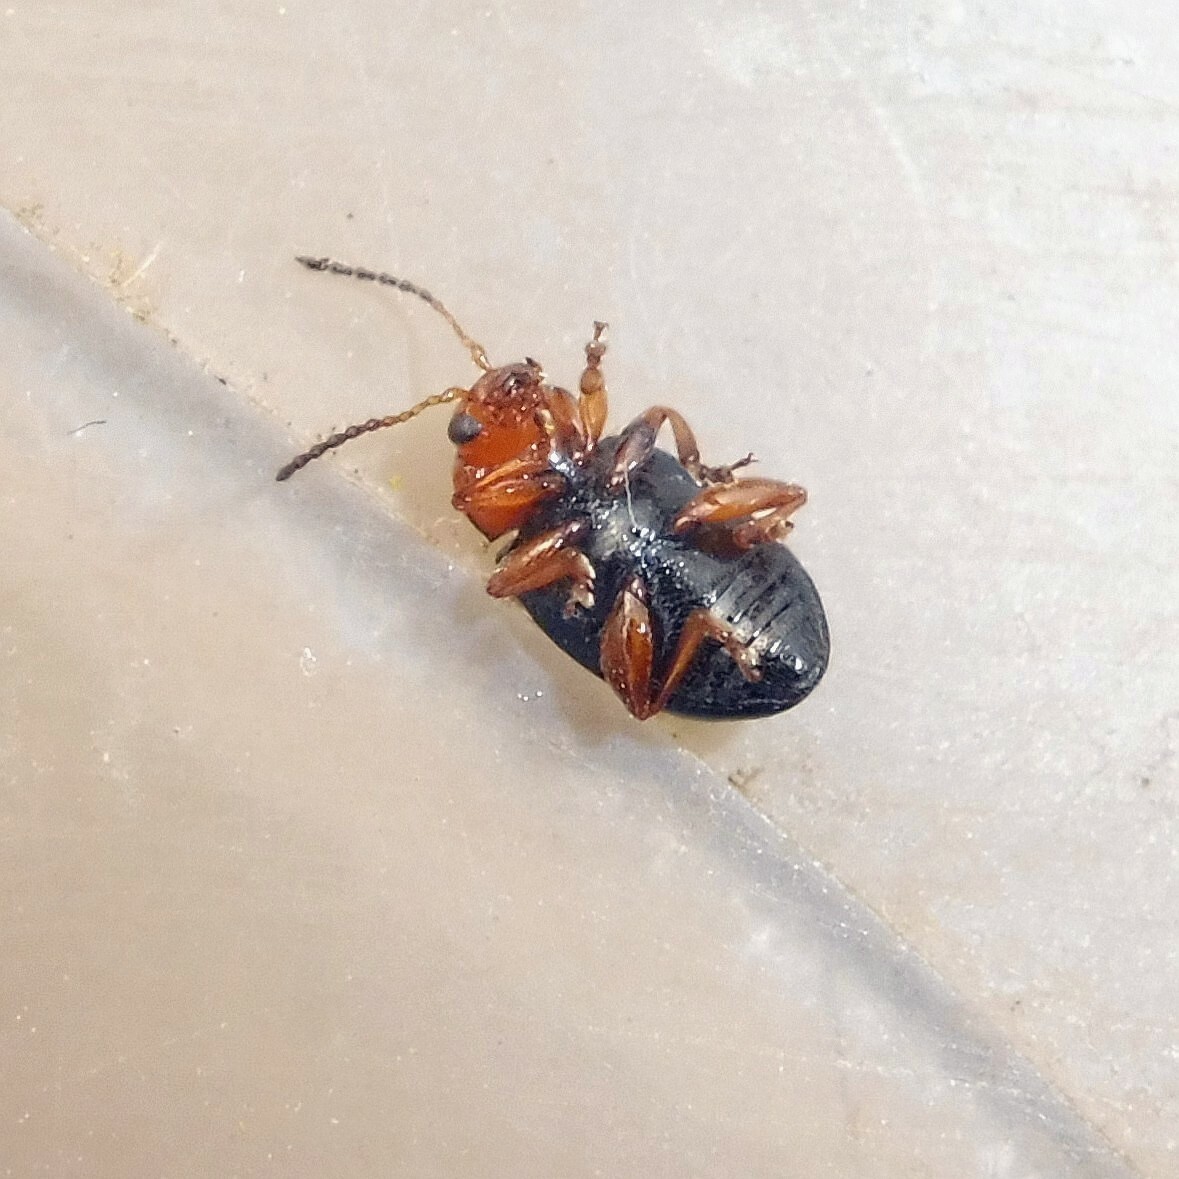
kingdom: Animalia
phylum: Arthropoda
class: Insecta
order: Coleoptera
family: Chrysomelidae
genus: Podagrica
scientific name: Podagrica fuscicornis
